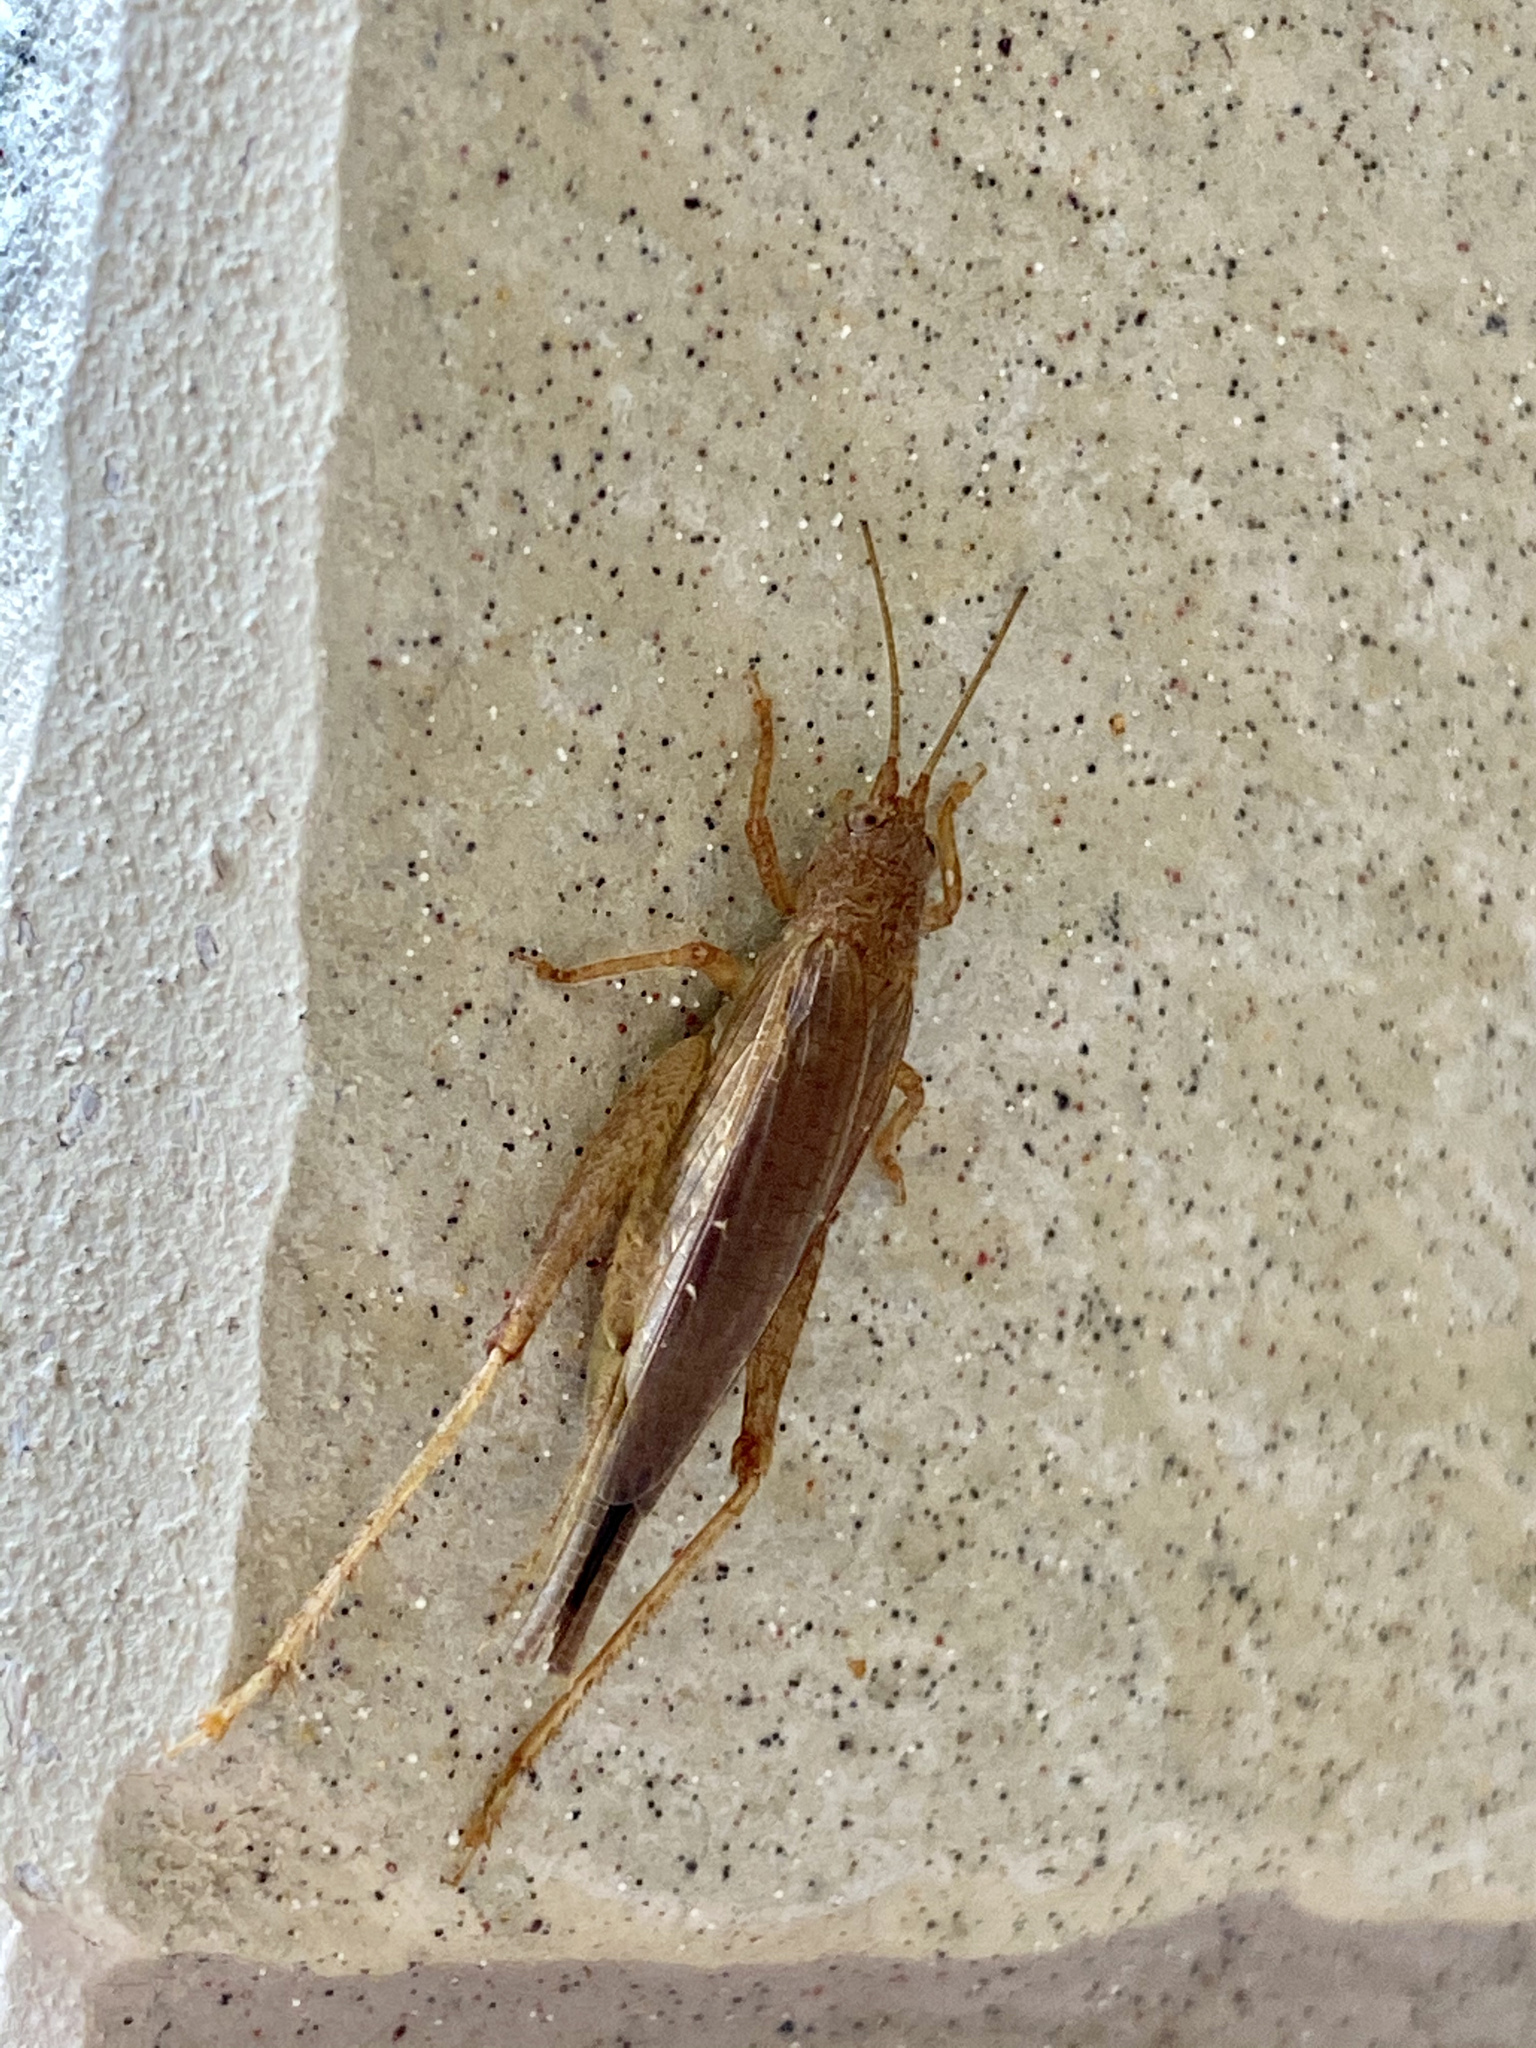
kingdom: Animalia
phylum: Arthropoda
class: Insecta
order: Orthoptera
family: Gryllidae
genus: Aphonoides
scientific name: Aphonoides japonicus
